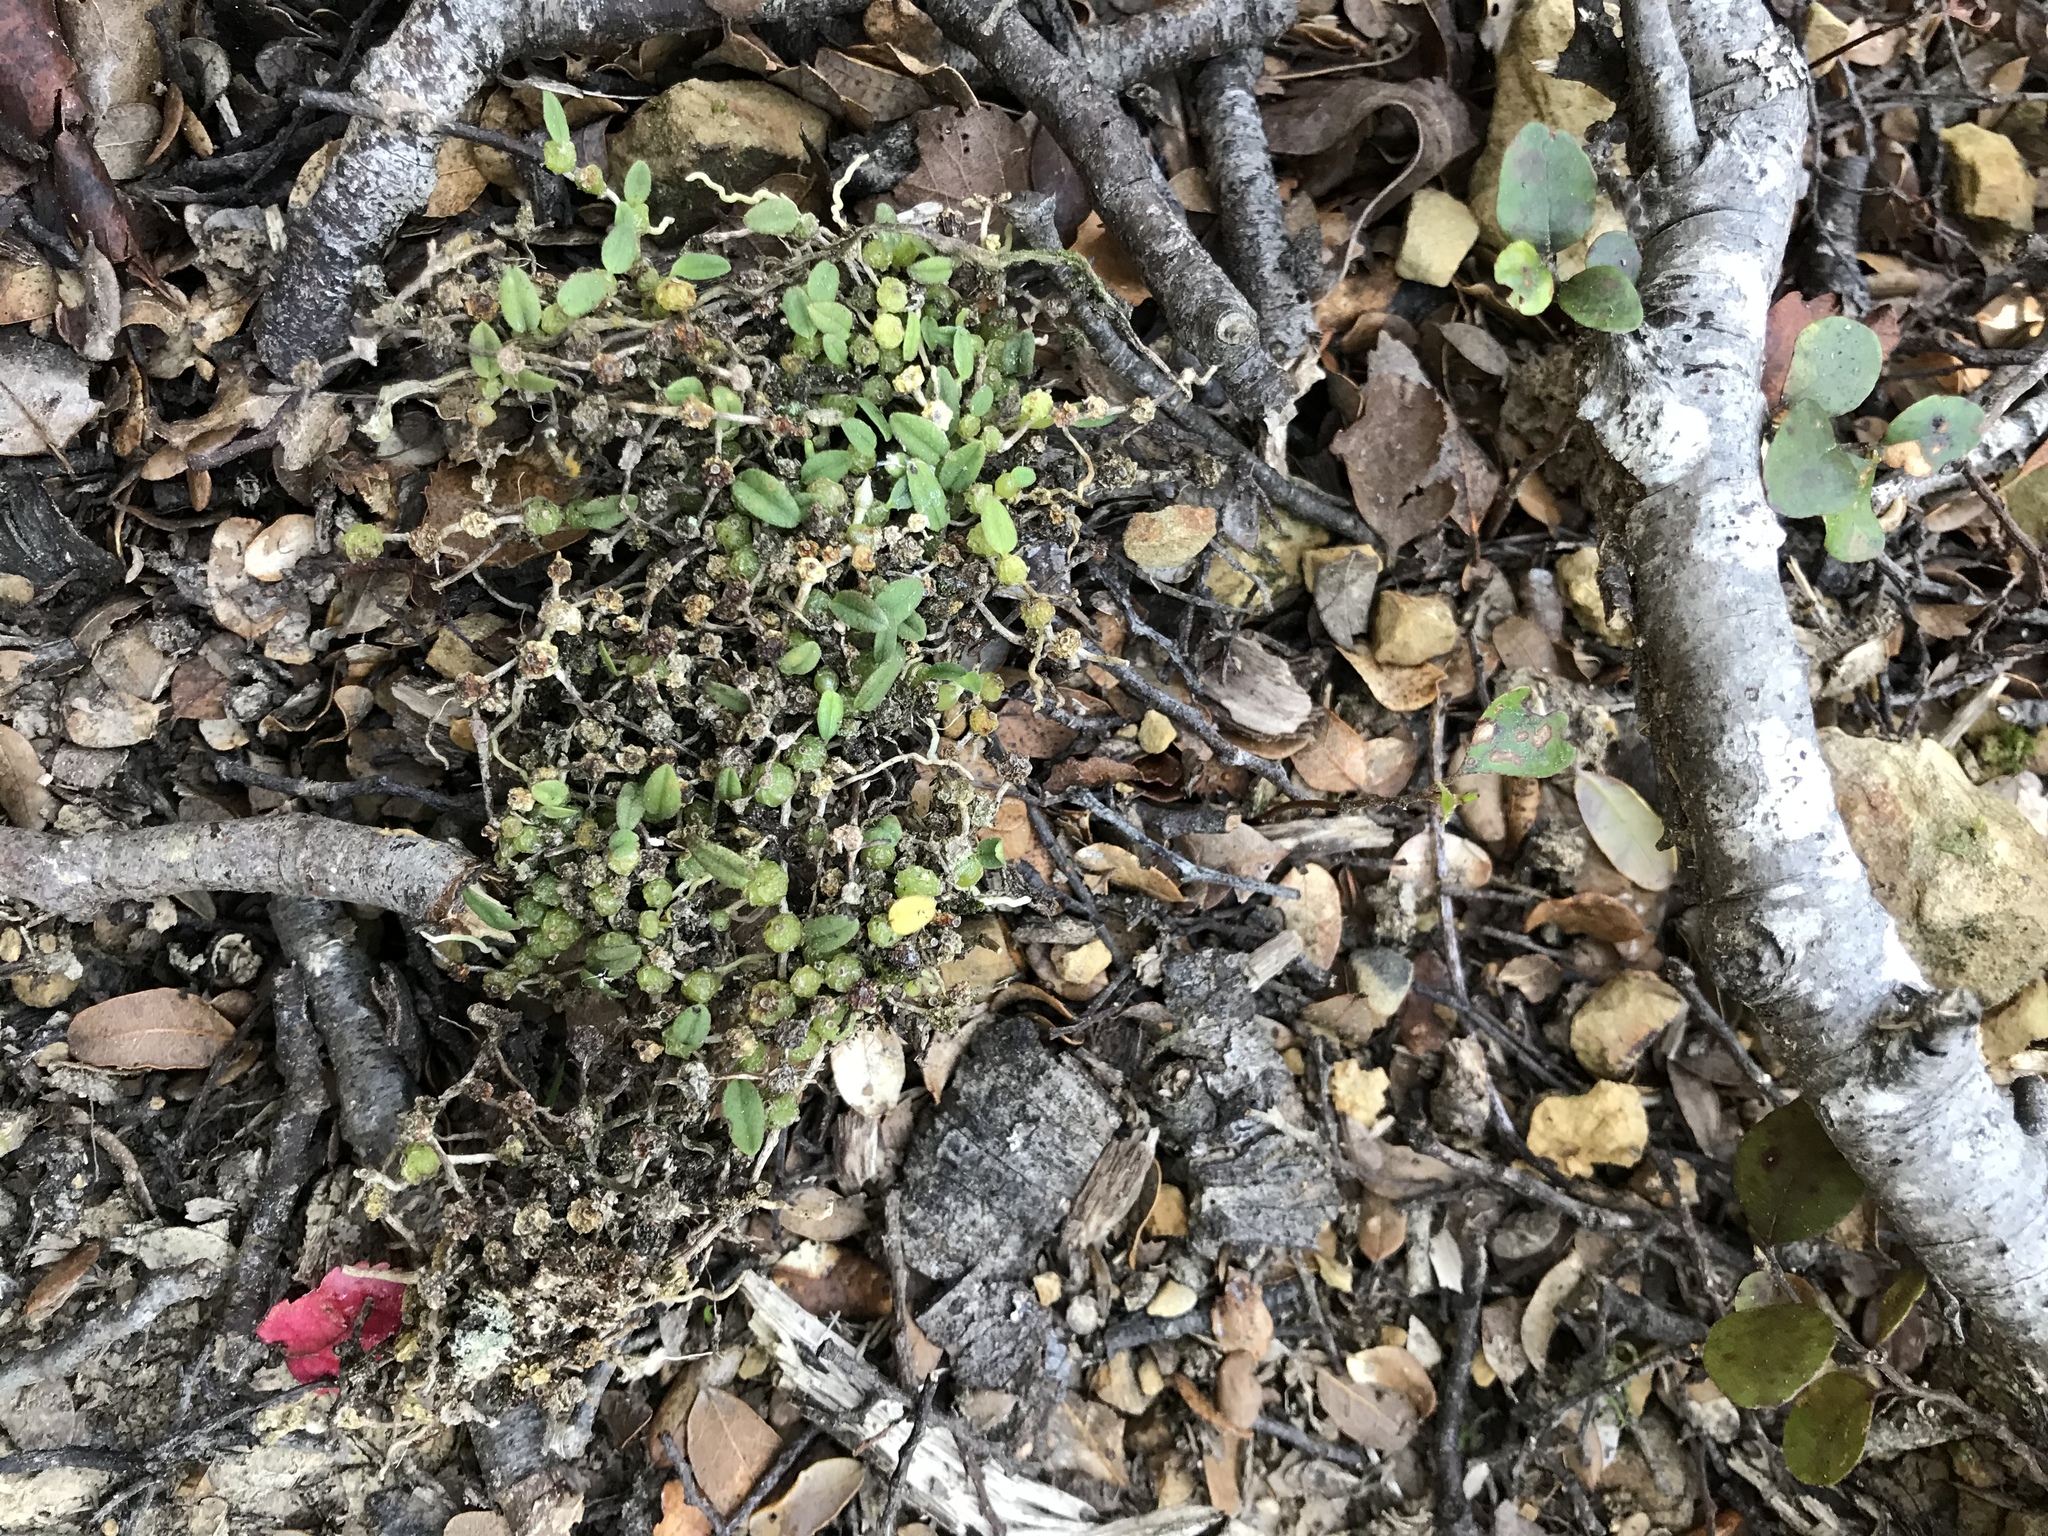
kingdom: Plantae
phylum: Tracheophyta
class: Liliopsida
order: Asparagales
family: Orchidaceae
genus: Bulbophyllum
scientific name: Bulbophyllum pygmaeum
